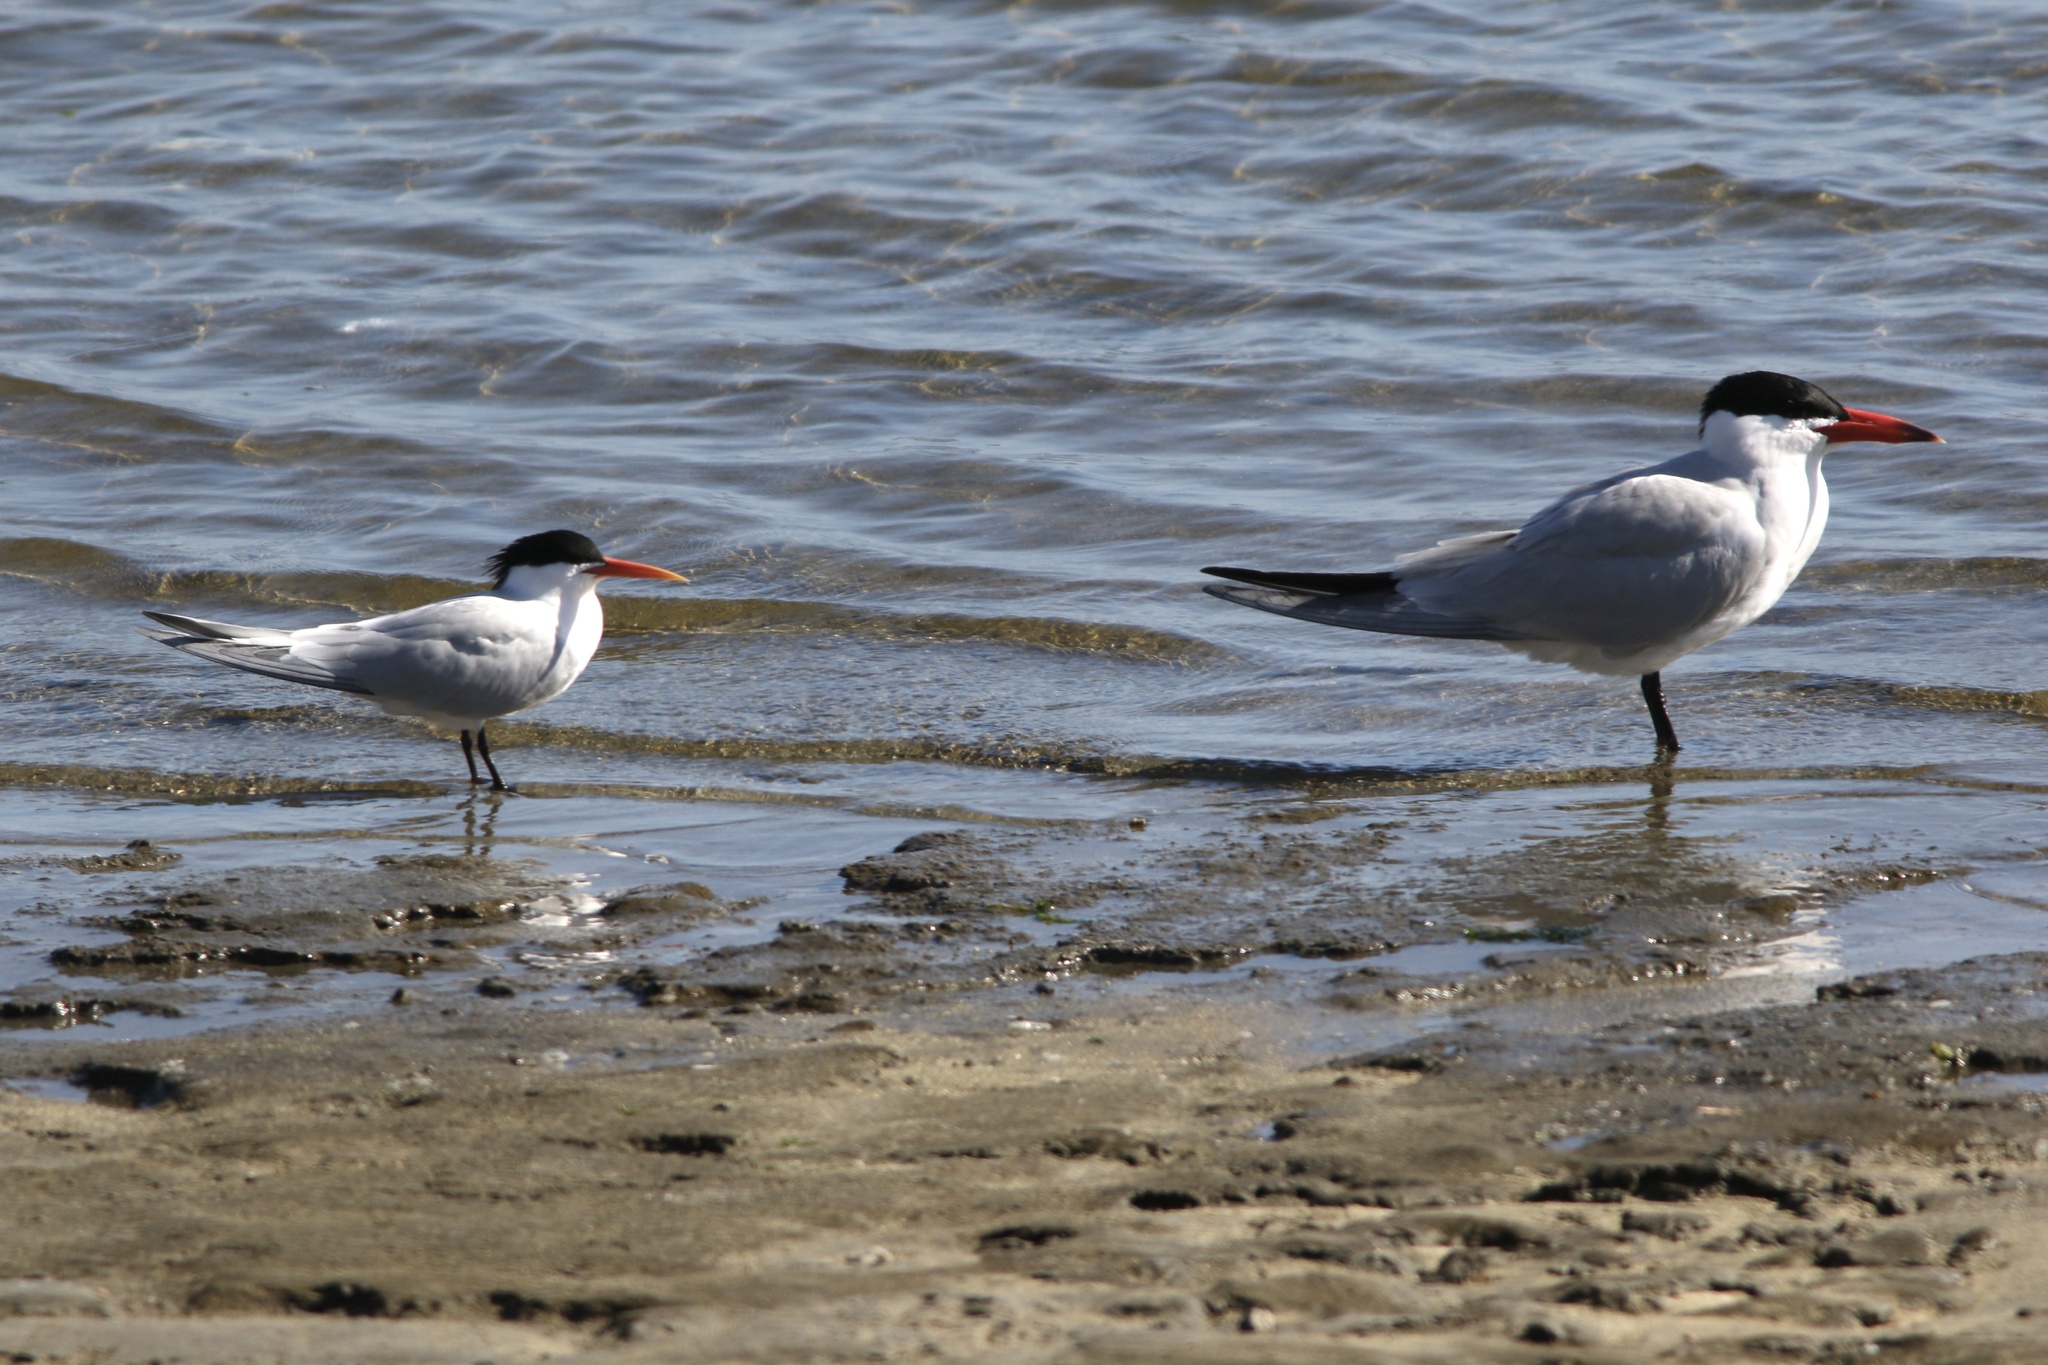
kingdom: Animalia
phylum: Chordata
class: Aves
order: Charadriiformes
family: Laridae
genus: Thalasseus
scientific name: Thalasseus elegans
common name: Elegant tern
